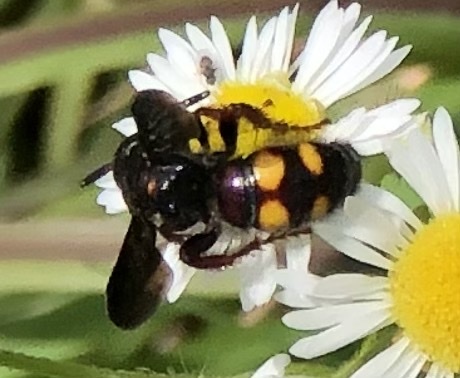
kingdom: Animalia
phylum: Arthropoda
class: Insecta
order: Hymenoptera
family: Scoliidae
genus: Scolia
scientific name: Scolia nobilitata
